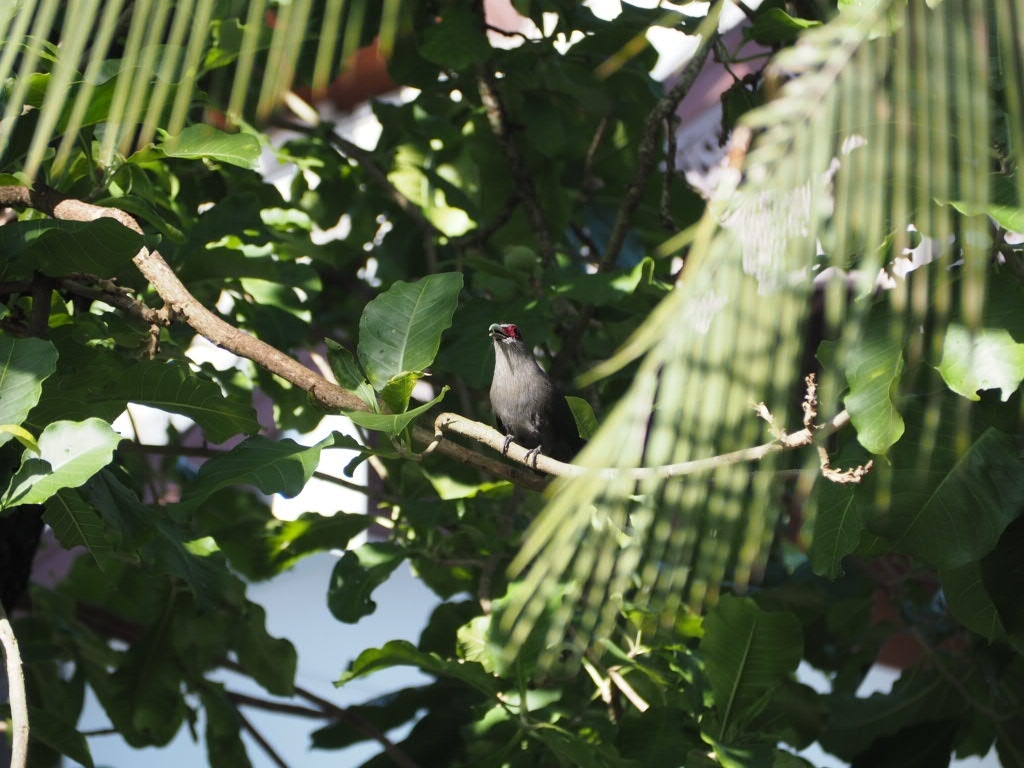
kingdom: Animalia
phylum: Chordata
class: Aves
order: Cuculiformes
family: Cuculidae
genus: Rhopodytes
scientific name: Rhopodytes tristis
